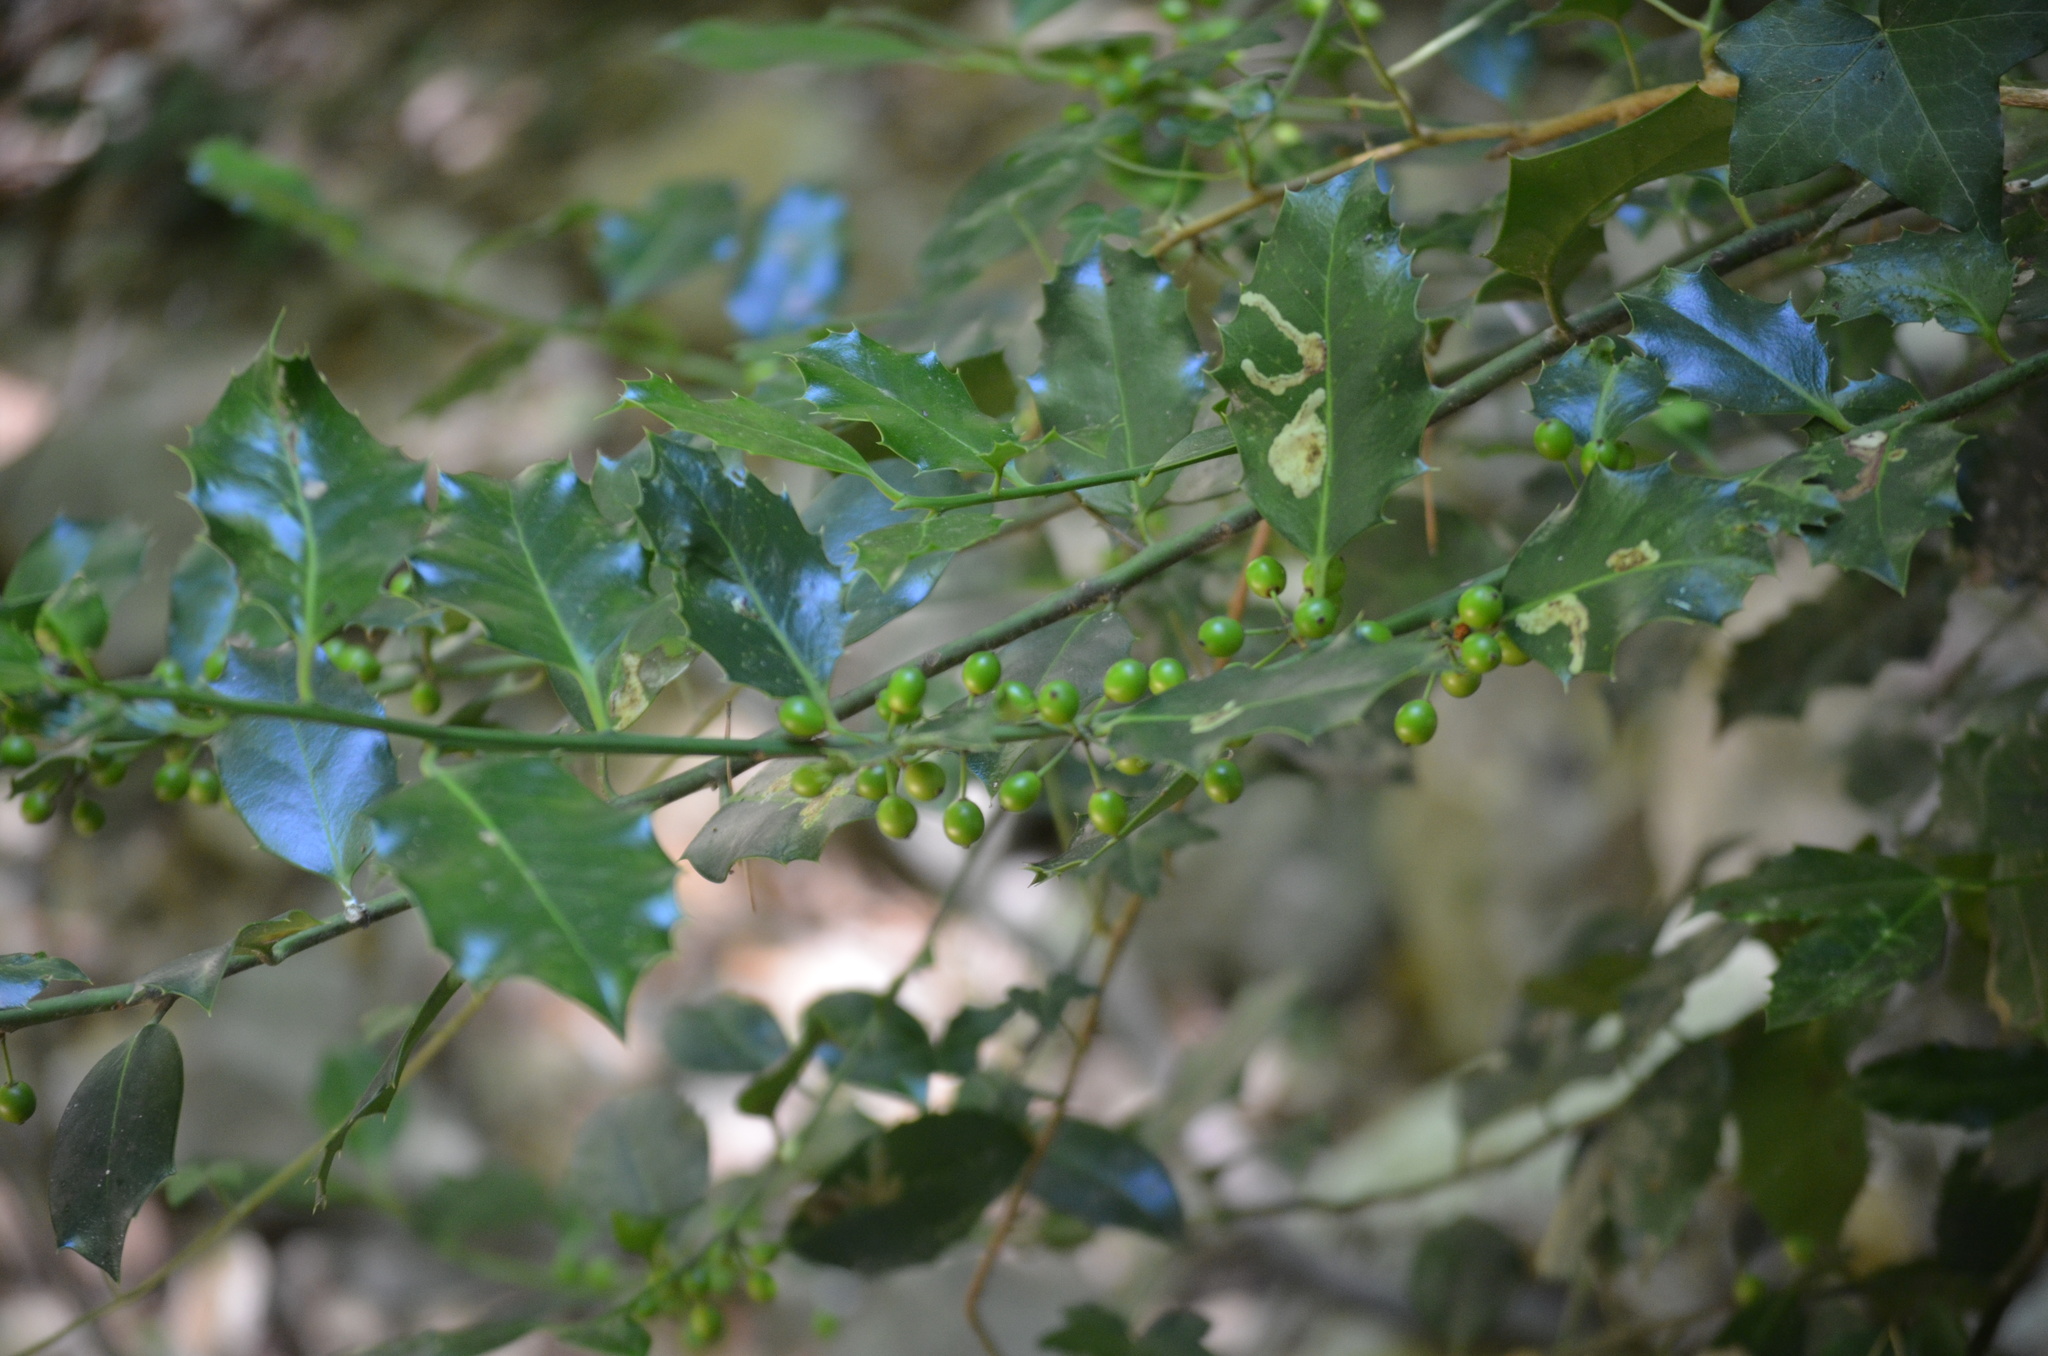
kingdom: Plantae
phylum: Tracheophyta
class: Magnoliopsida
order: Aquifoliales
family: Aquifoliaceae
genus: Ilex
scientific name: Ilex aquifolium
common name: English holly
